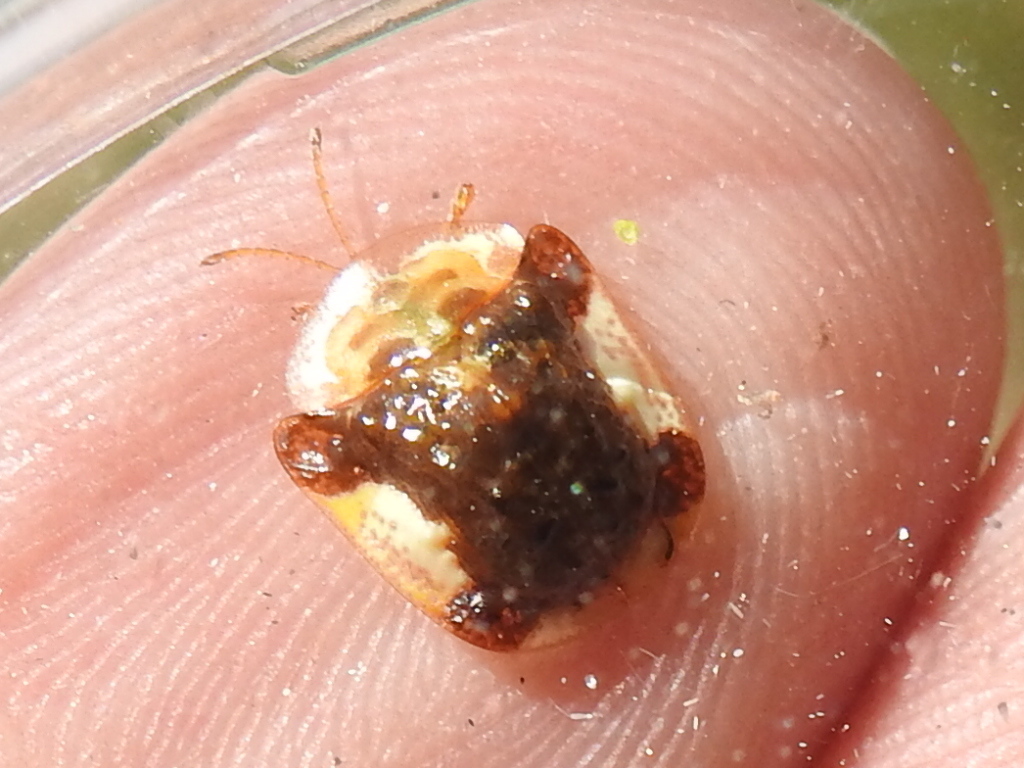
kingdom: Animalia
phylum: Arthropoda
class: Insecta
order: Coleoptera
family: Chrysomelidae
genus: Helocassis
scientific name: Helocassis clavata
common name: Clavate tortoise beetle
